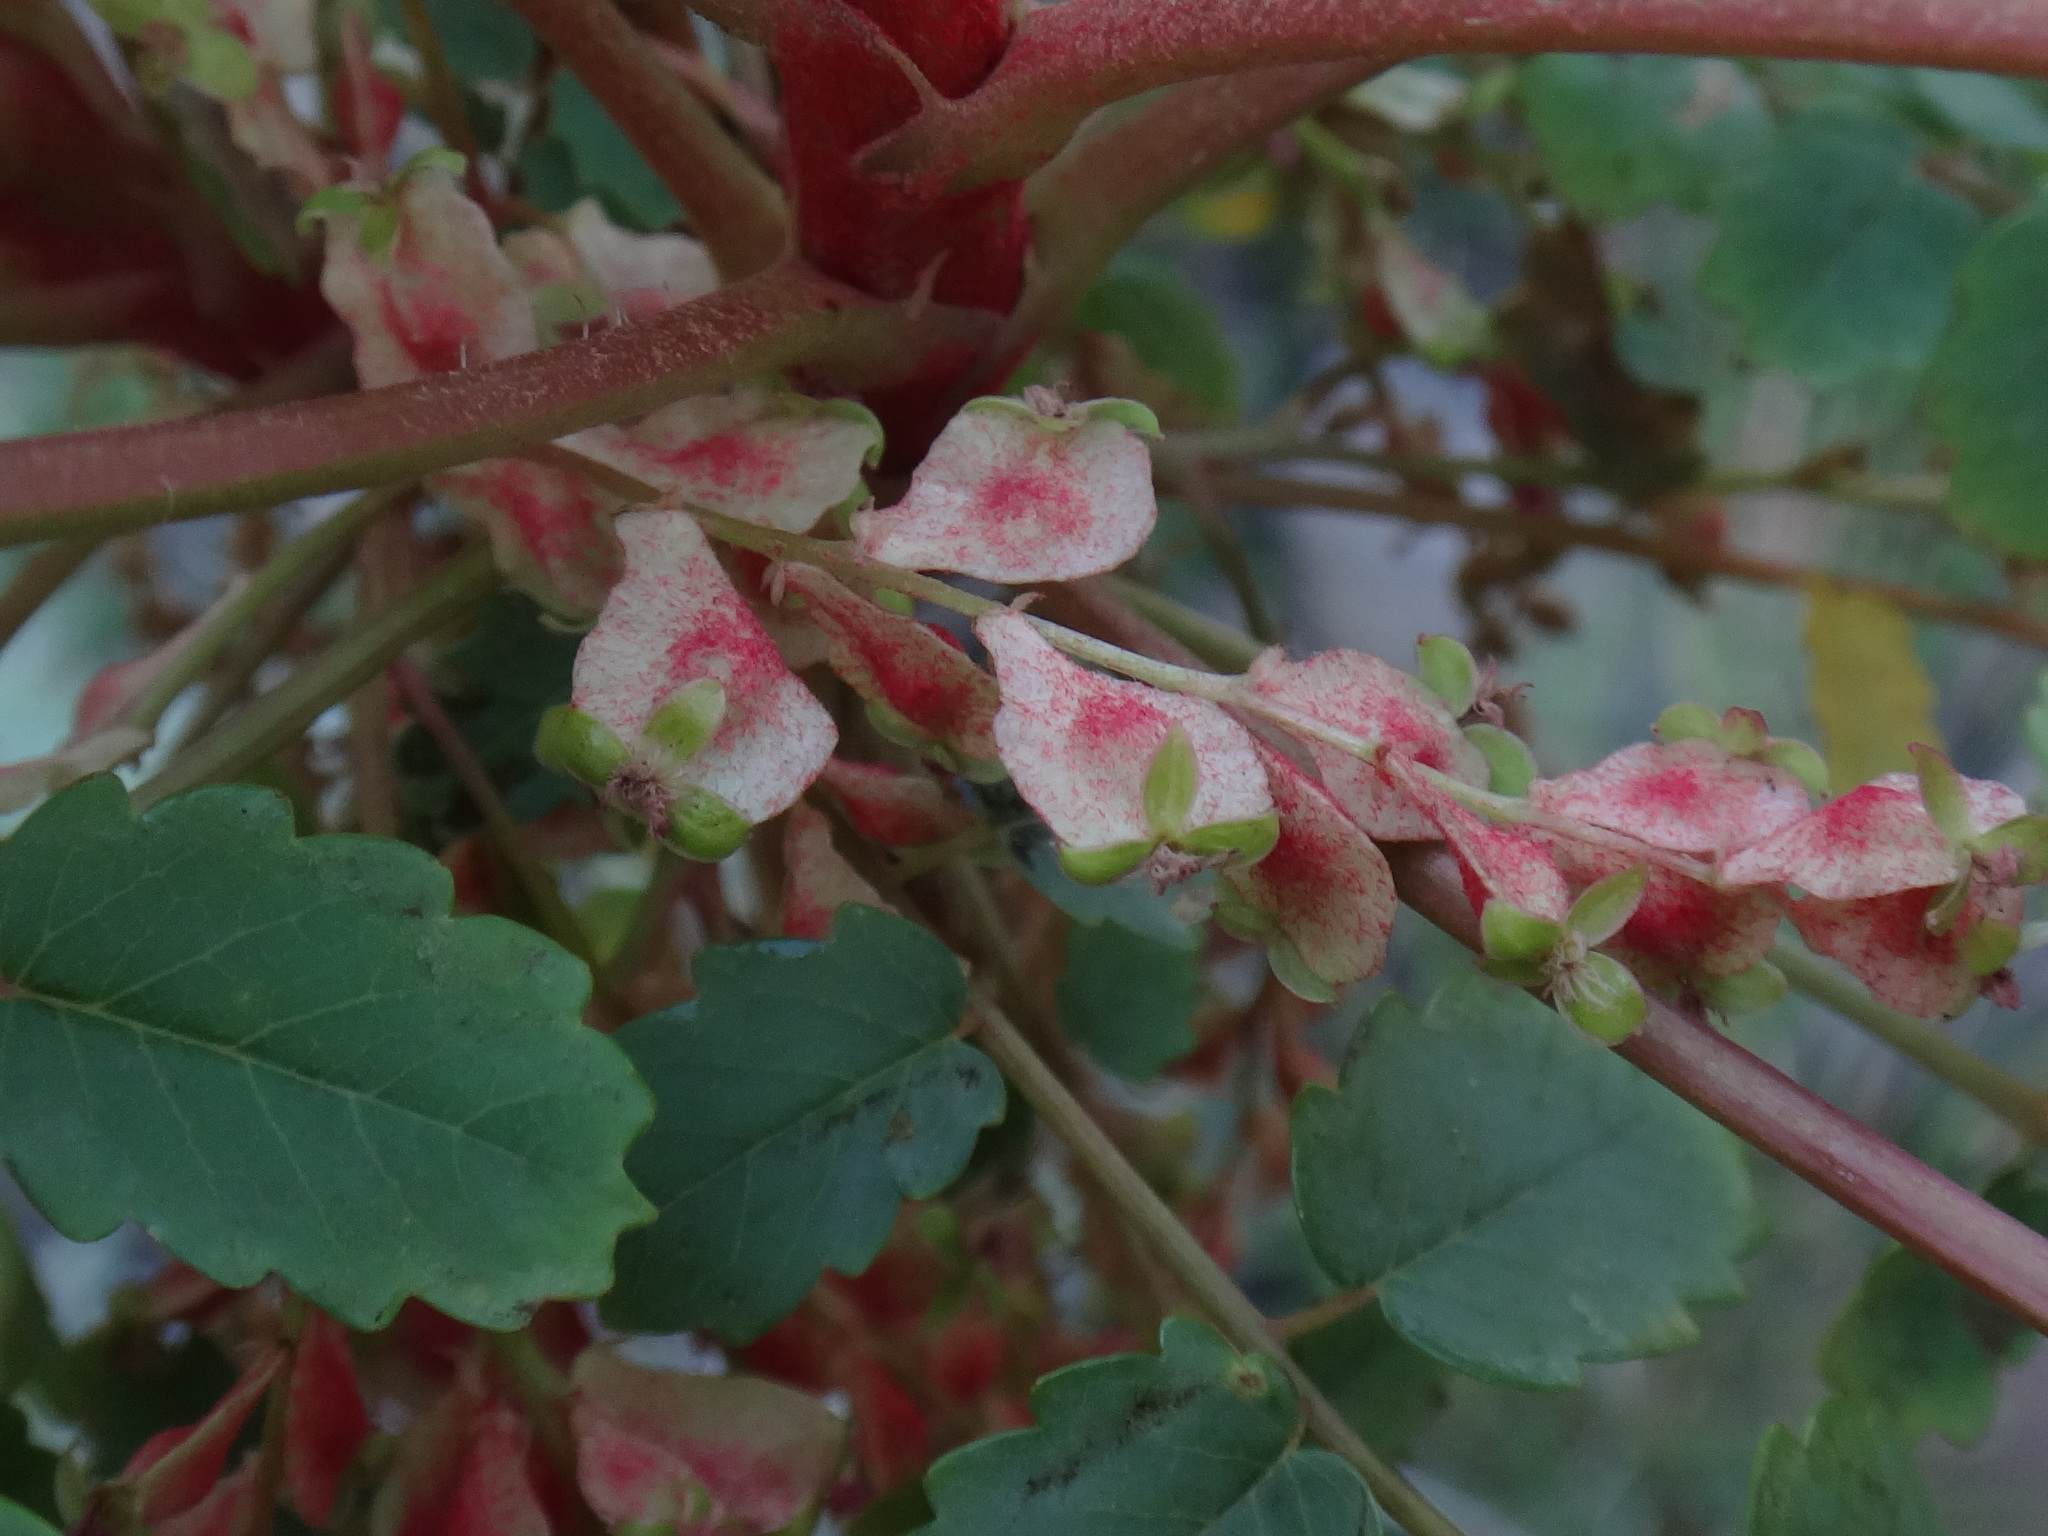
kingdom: Plantae
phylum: Tracheophyta
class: Magnoliopsida
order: Rosales
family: Rosaceae
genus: Marcetella
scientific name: Marcetella moquiniana
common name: Burnet tree
